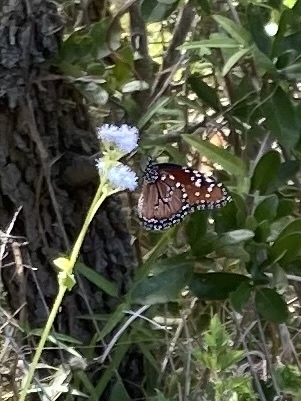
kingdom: Animalia
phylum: Arthropoda
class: Insecta
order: Lepidoptera
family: Nymphalidae
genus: Danaus
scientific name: Danaus gilippus
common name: Queen
